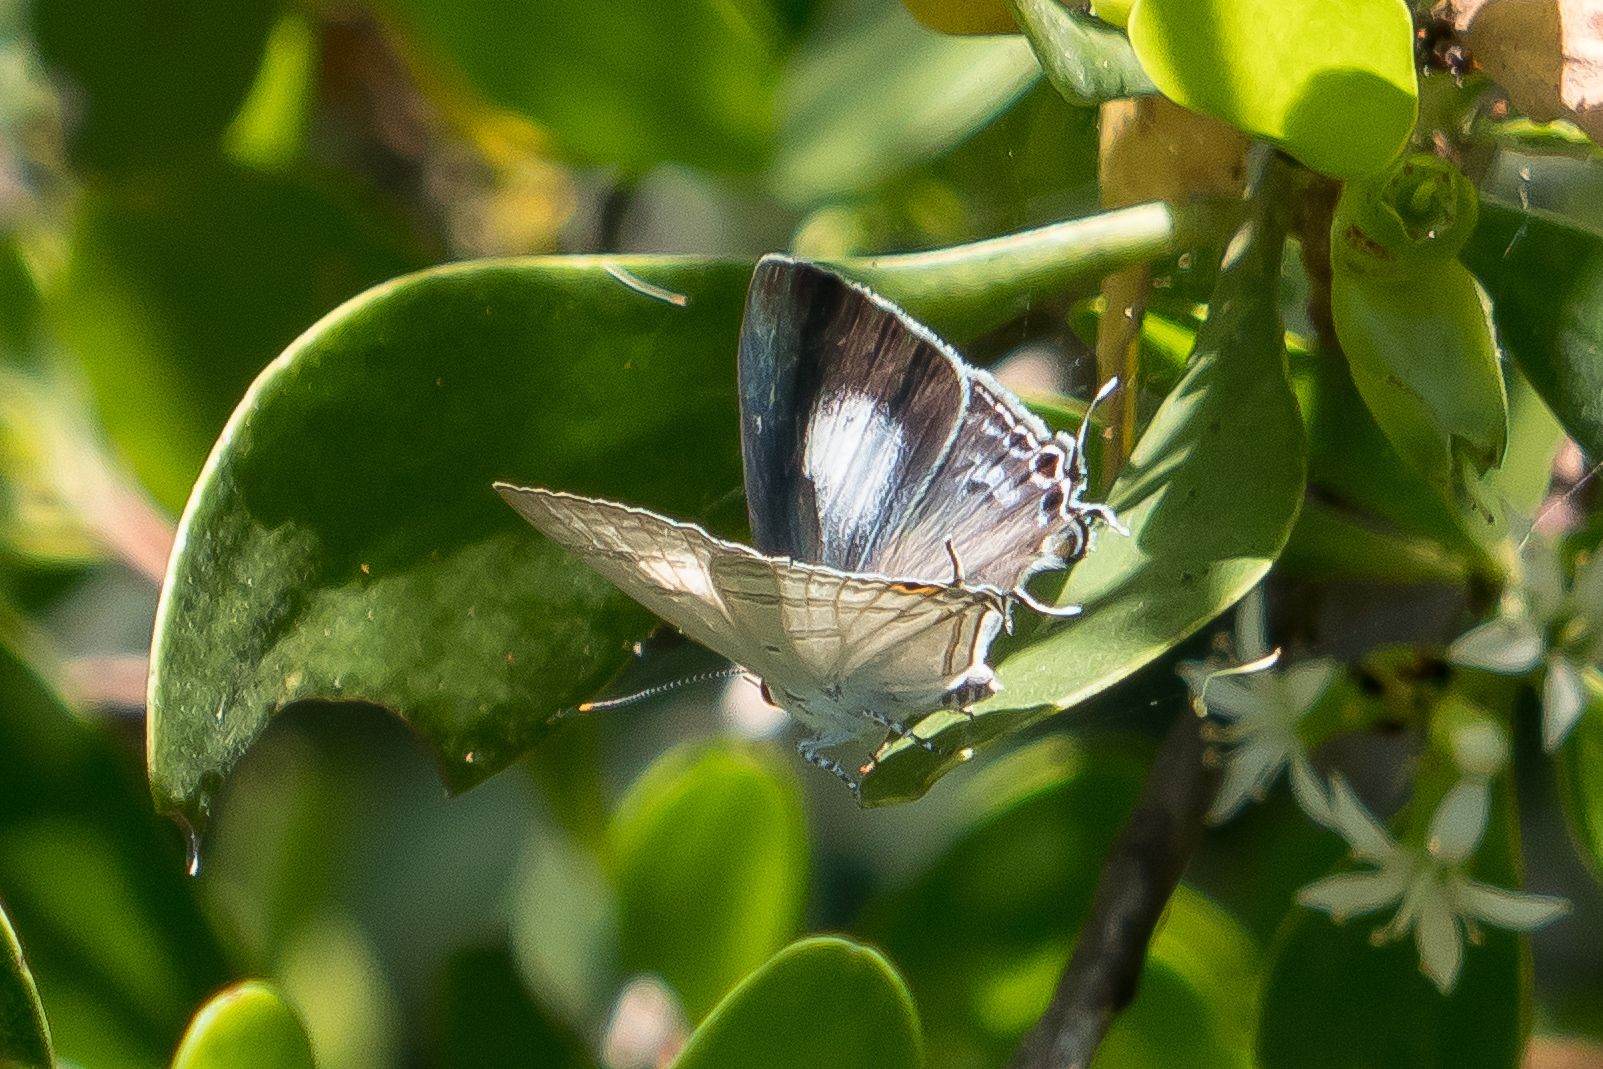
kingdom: Animalia
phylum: Arthropoda
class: Insecta
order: Lepidoptera
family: Lycaenidae
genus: Hypolycaena
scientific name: Hypolycaena phorbas
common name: Black-spotted flash
